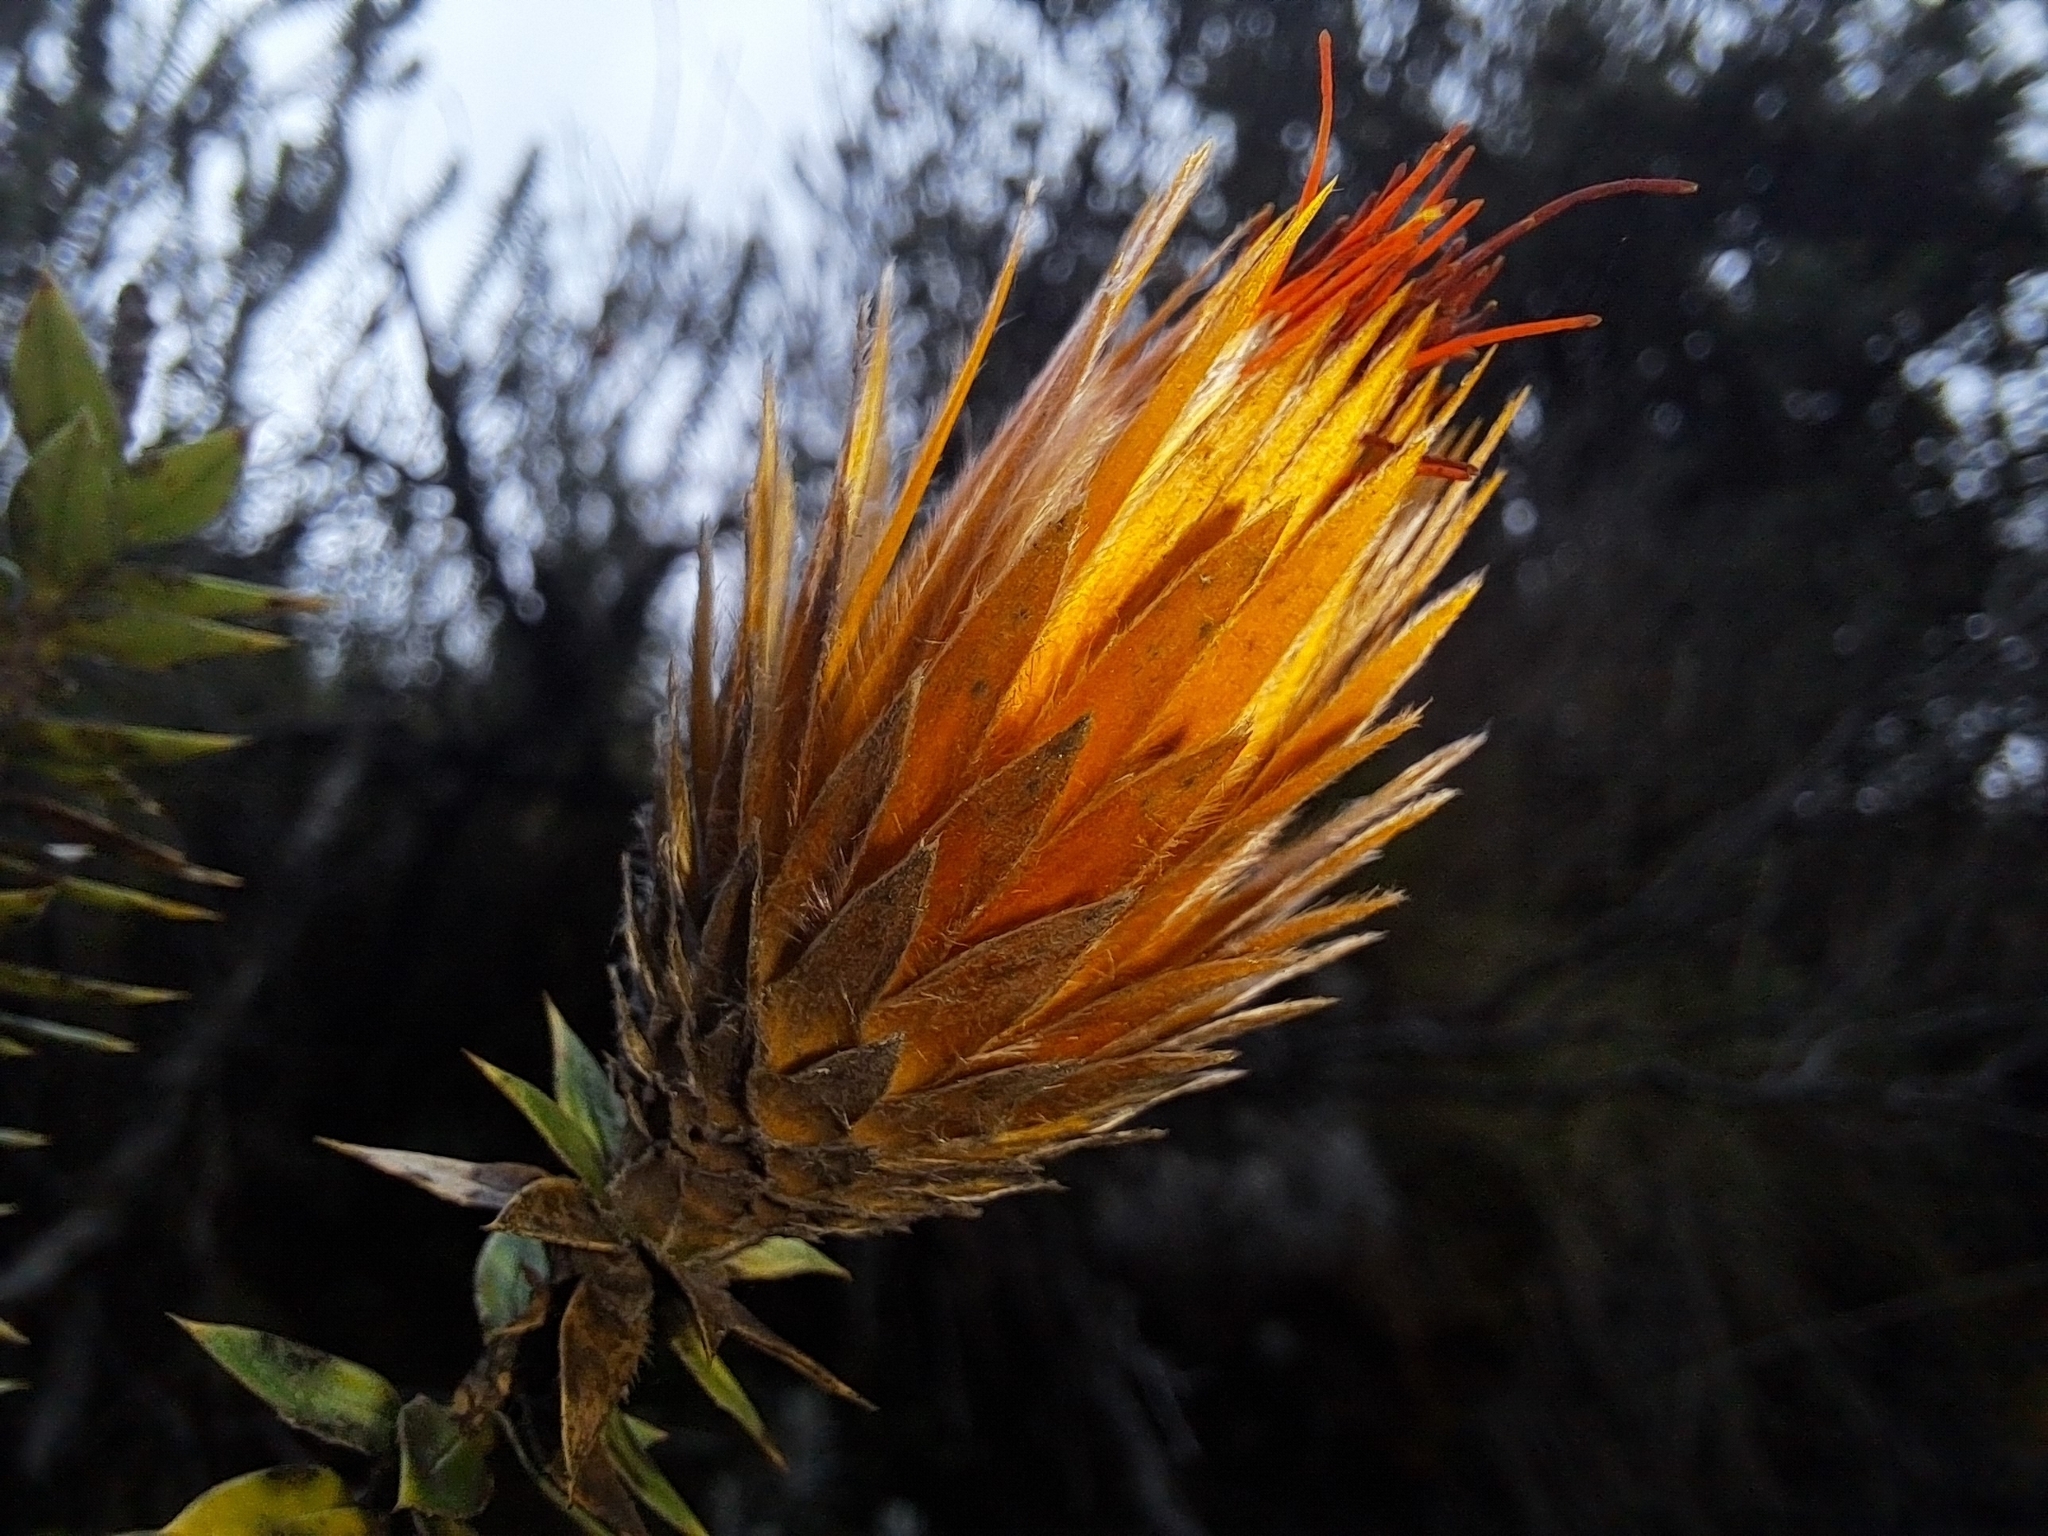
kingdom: Plantae
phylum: Tracheophyta
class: Magnoliopsida
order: Asterales
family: Asteraceae
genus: Chuquiraga
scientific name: Chuquiraga jussieui
